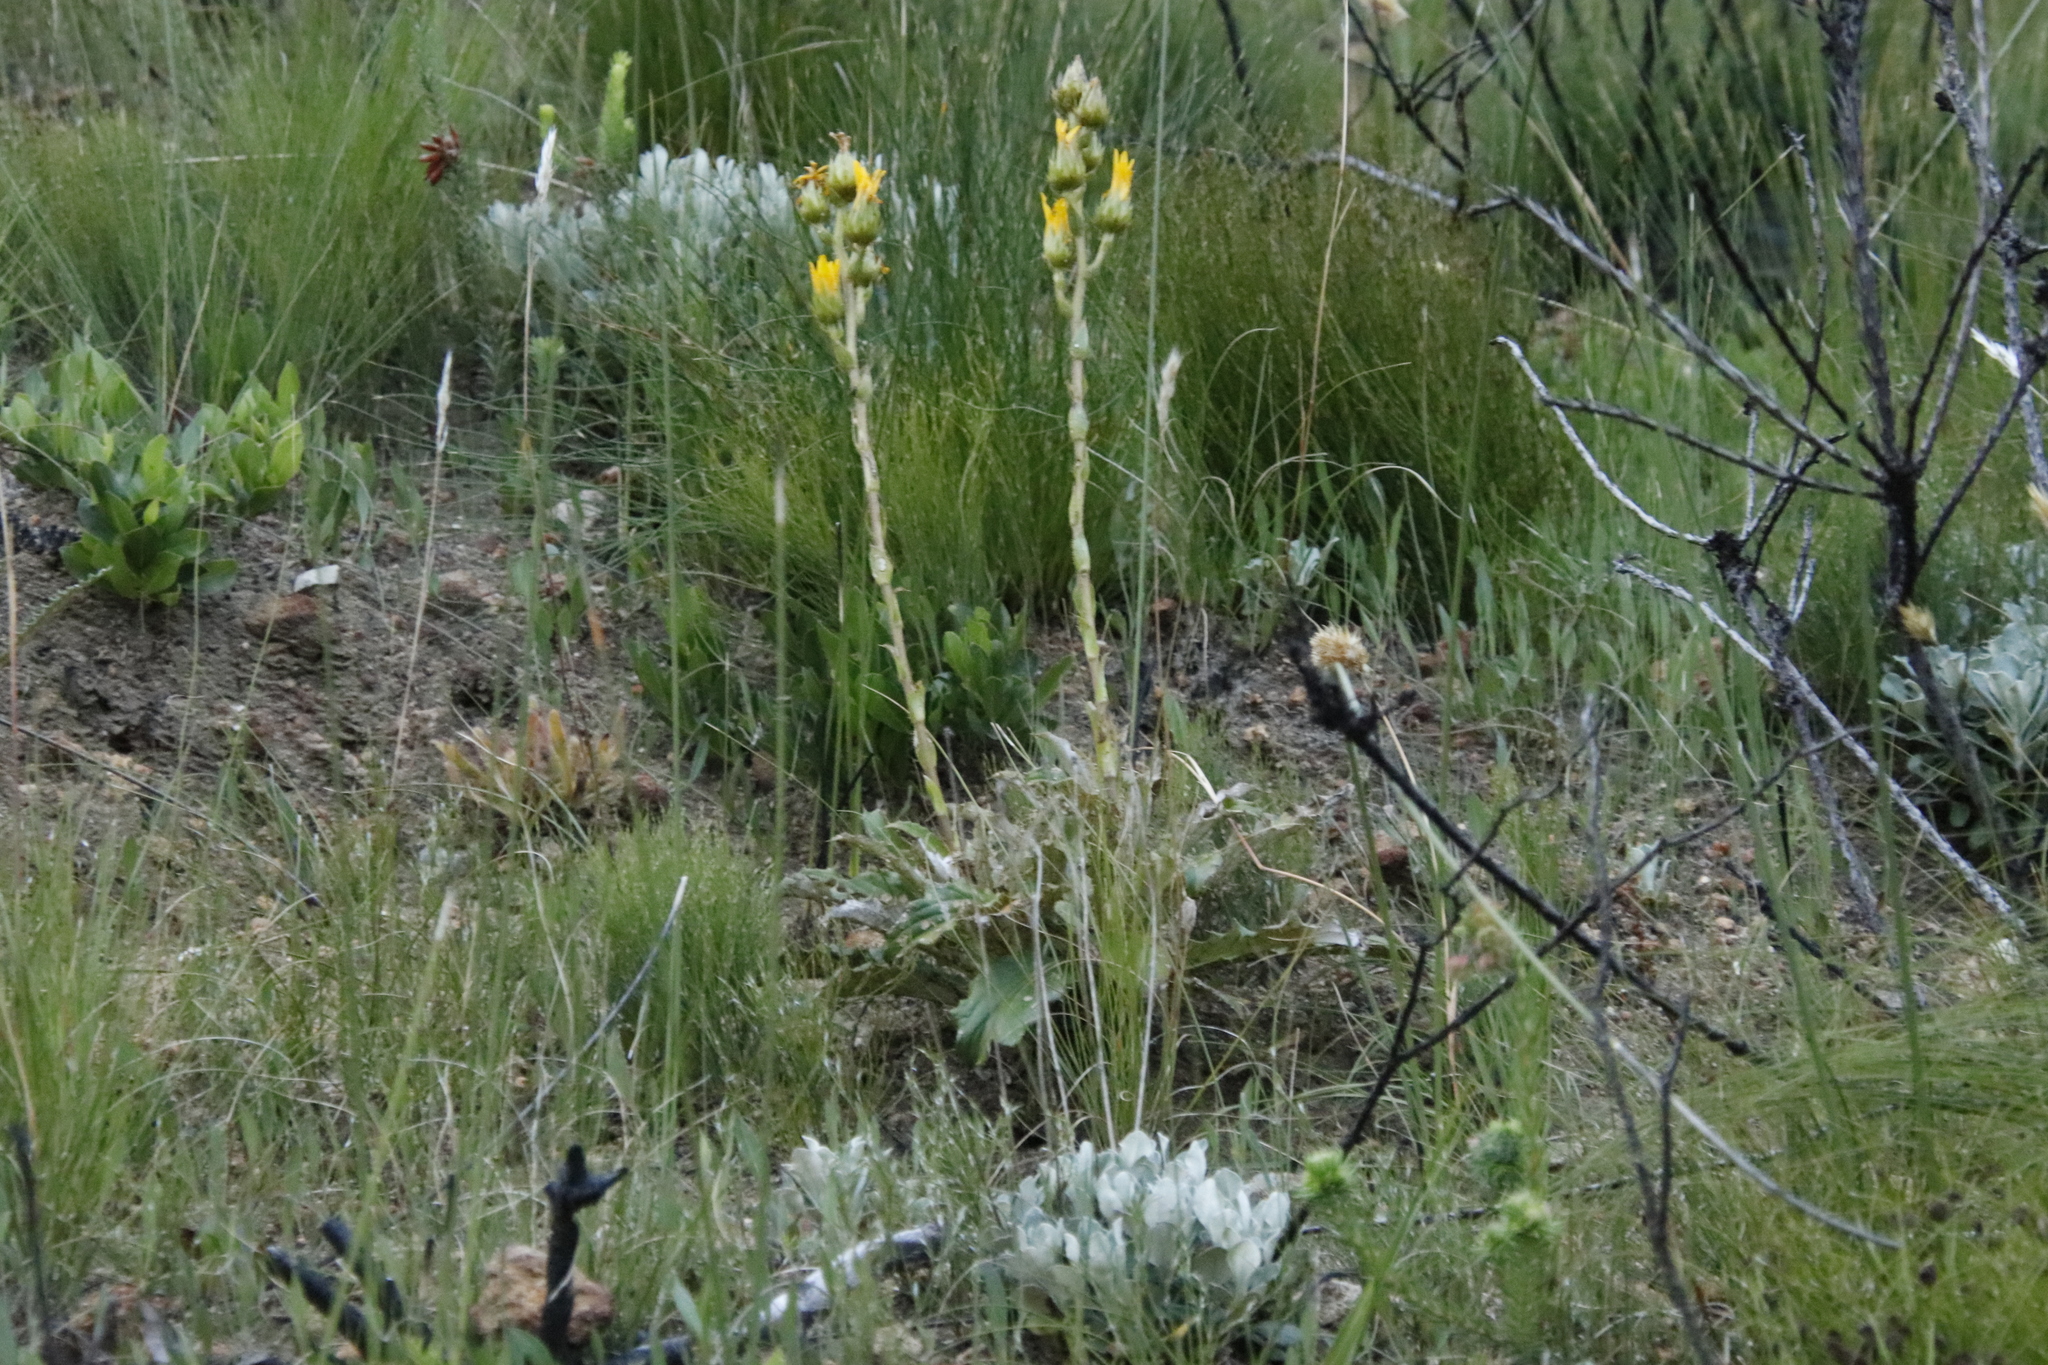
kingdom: Plantae
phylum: Tracheophyta
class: Magnoliopsida
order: Asterales
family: Asteraceae
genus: Berkheya
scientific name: Berkheya armata
